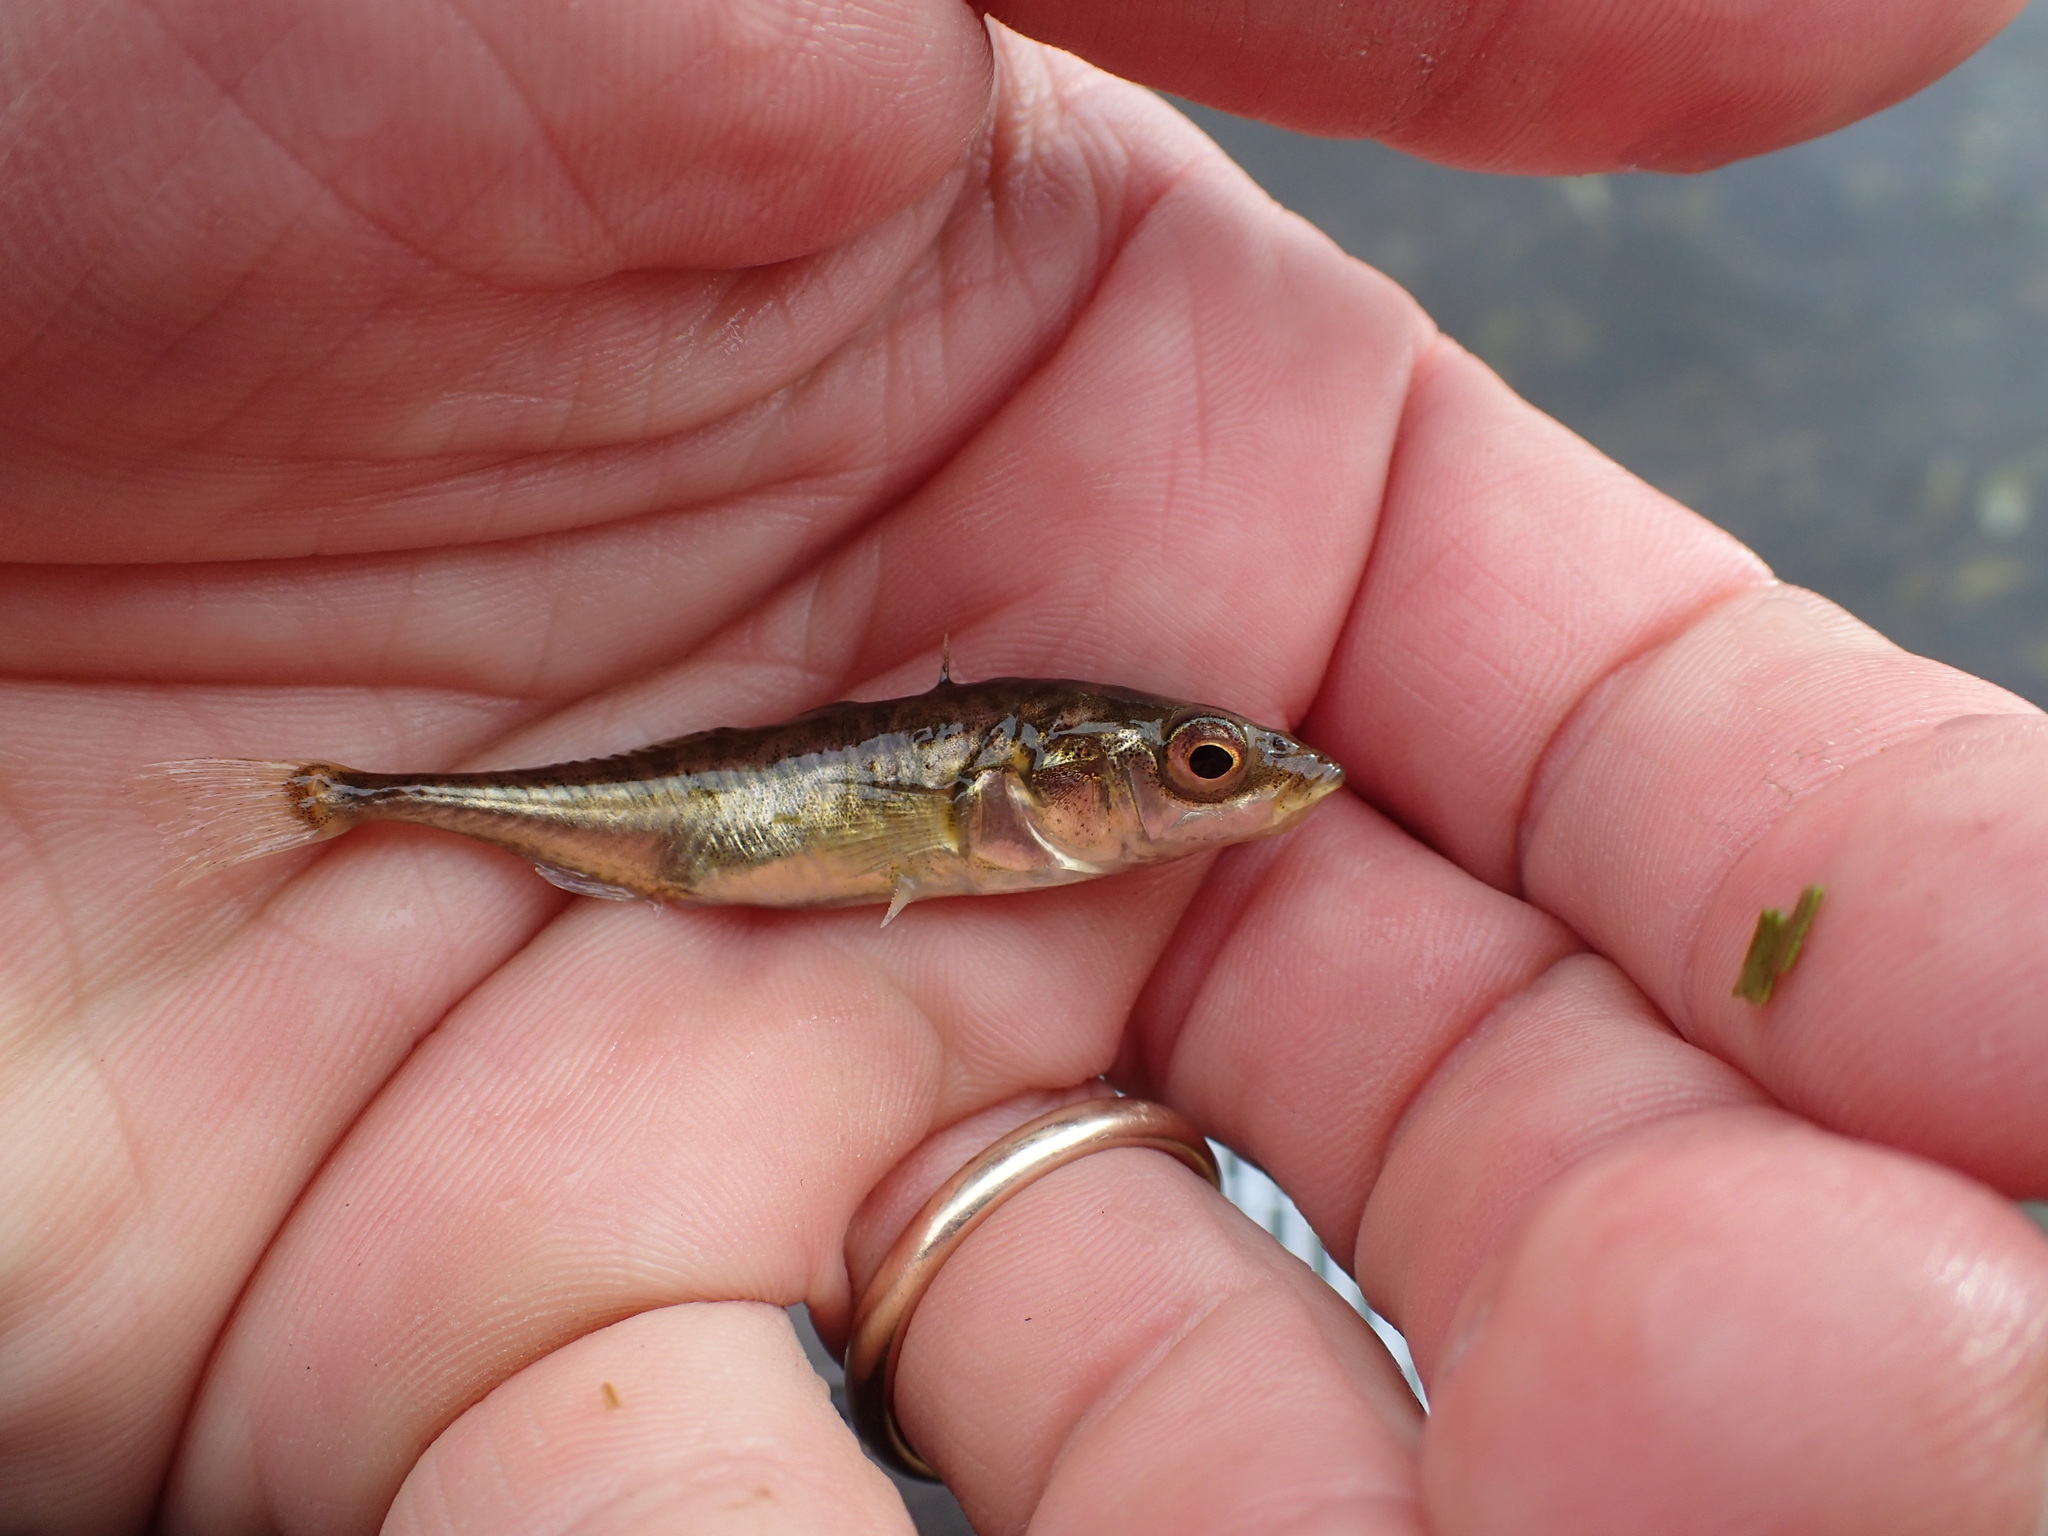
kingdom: Animalia
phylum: Chordata
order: Gasterosteiformes
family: Gasterosteidae
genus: Gasterosteus
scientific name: Gasterosteus aculeatus
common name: Three-spined stickleback
